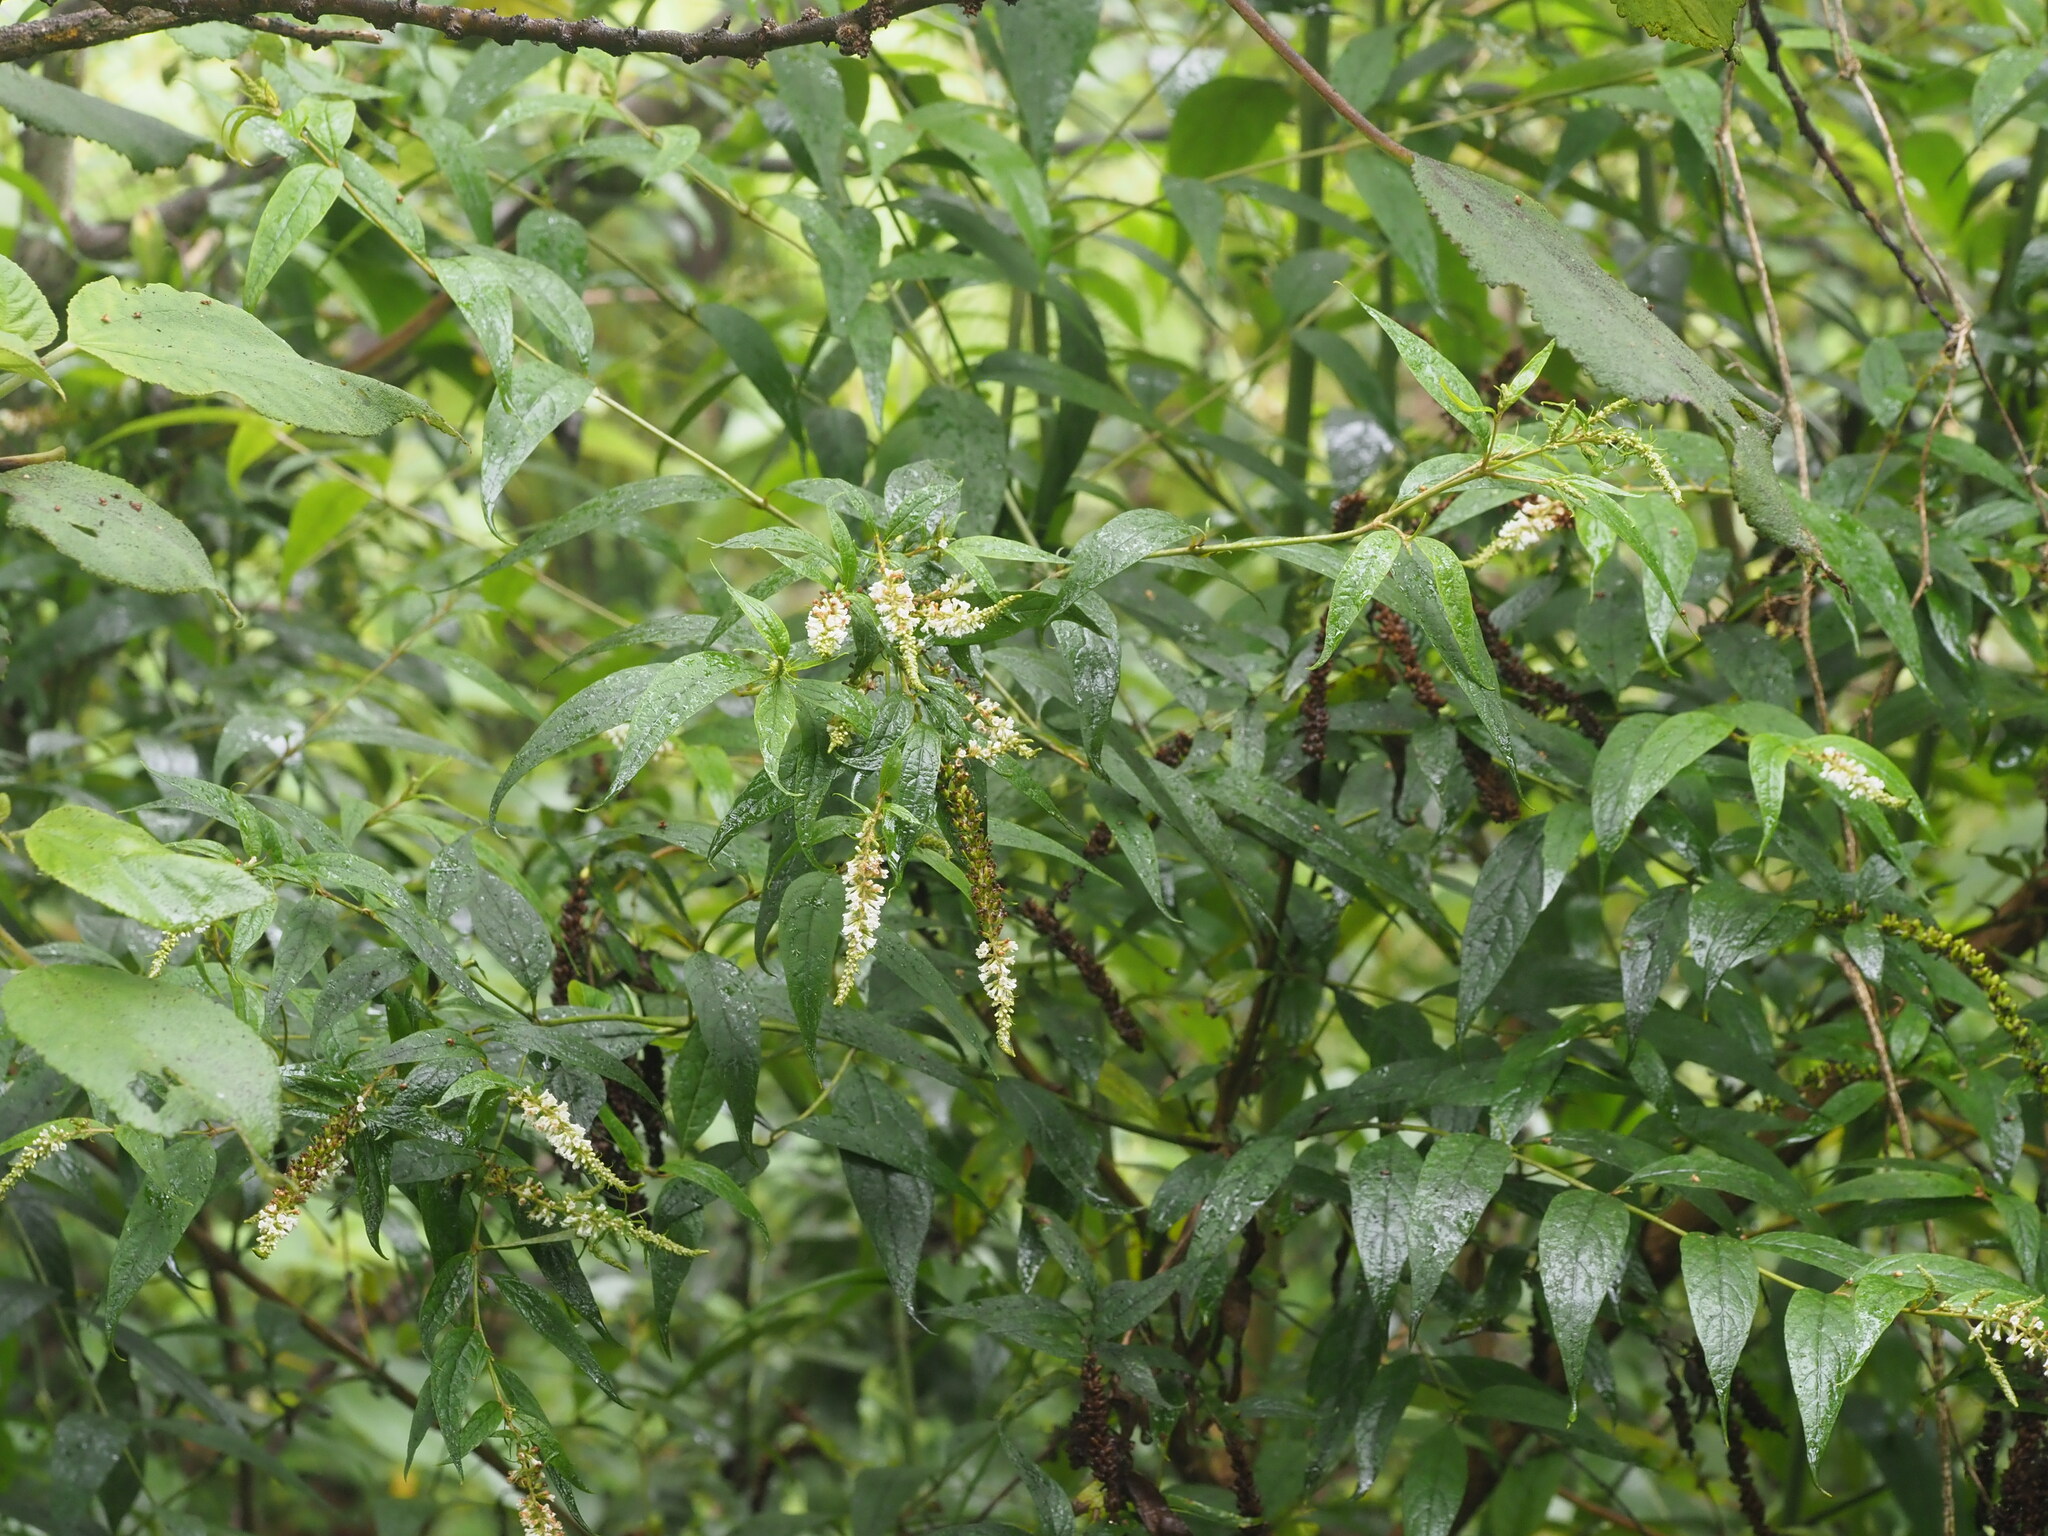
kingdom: Plantae
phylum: Tracheophyta
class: Magnoliopsida
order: Lamiales
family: Scrophulariaceae
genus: Buddleja
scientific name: Buddleja asiatica
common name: Dog tail
